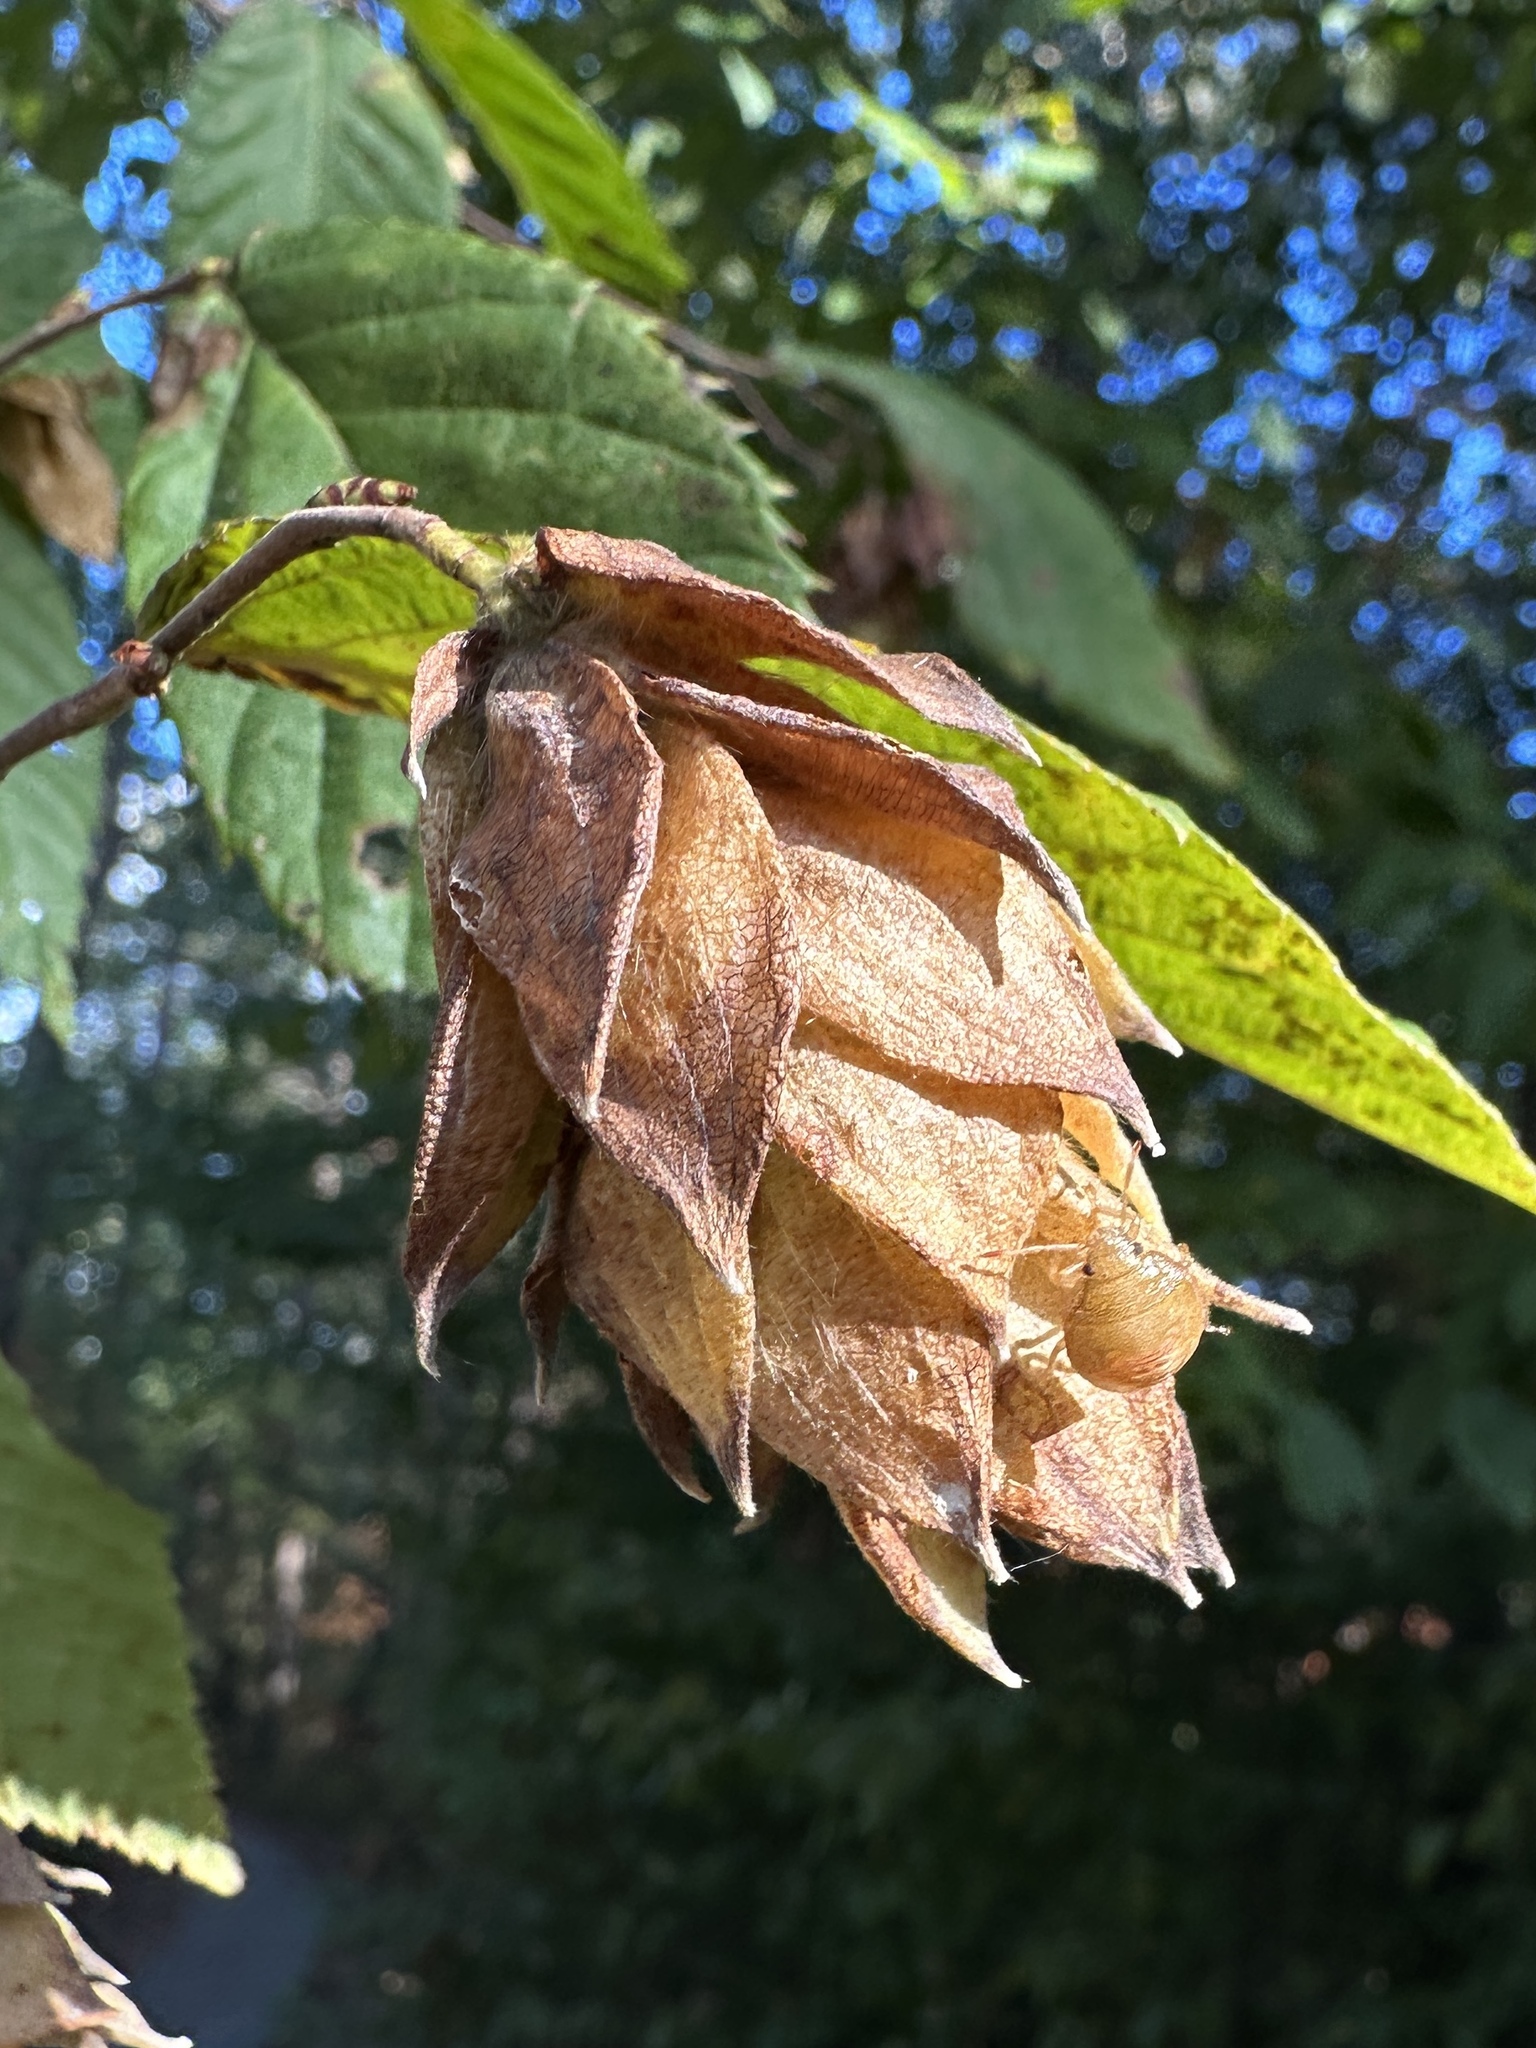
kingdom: Plantae
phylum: Tracheophyta
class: Magnoliopsida
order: Fagales
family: Betulaceae
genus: Ostrya
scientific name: Ostrya virginiana
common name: Ironwood
